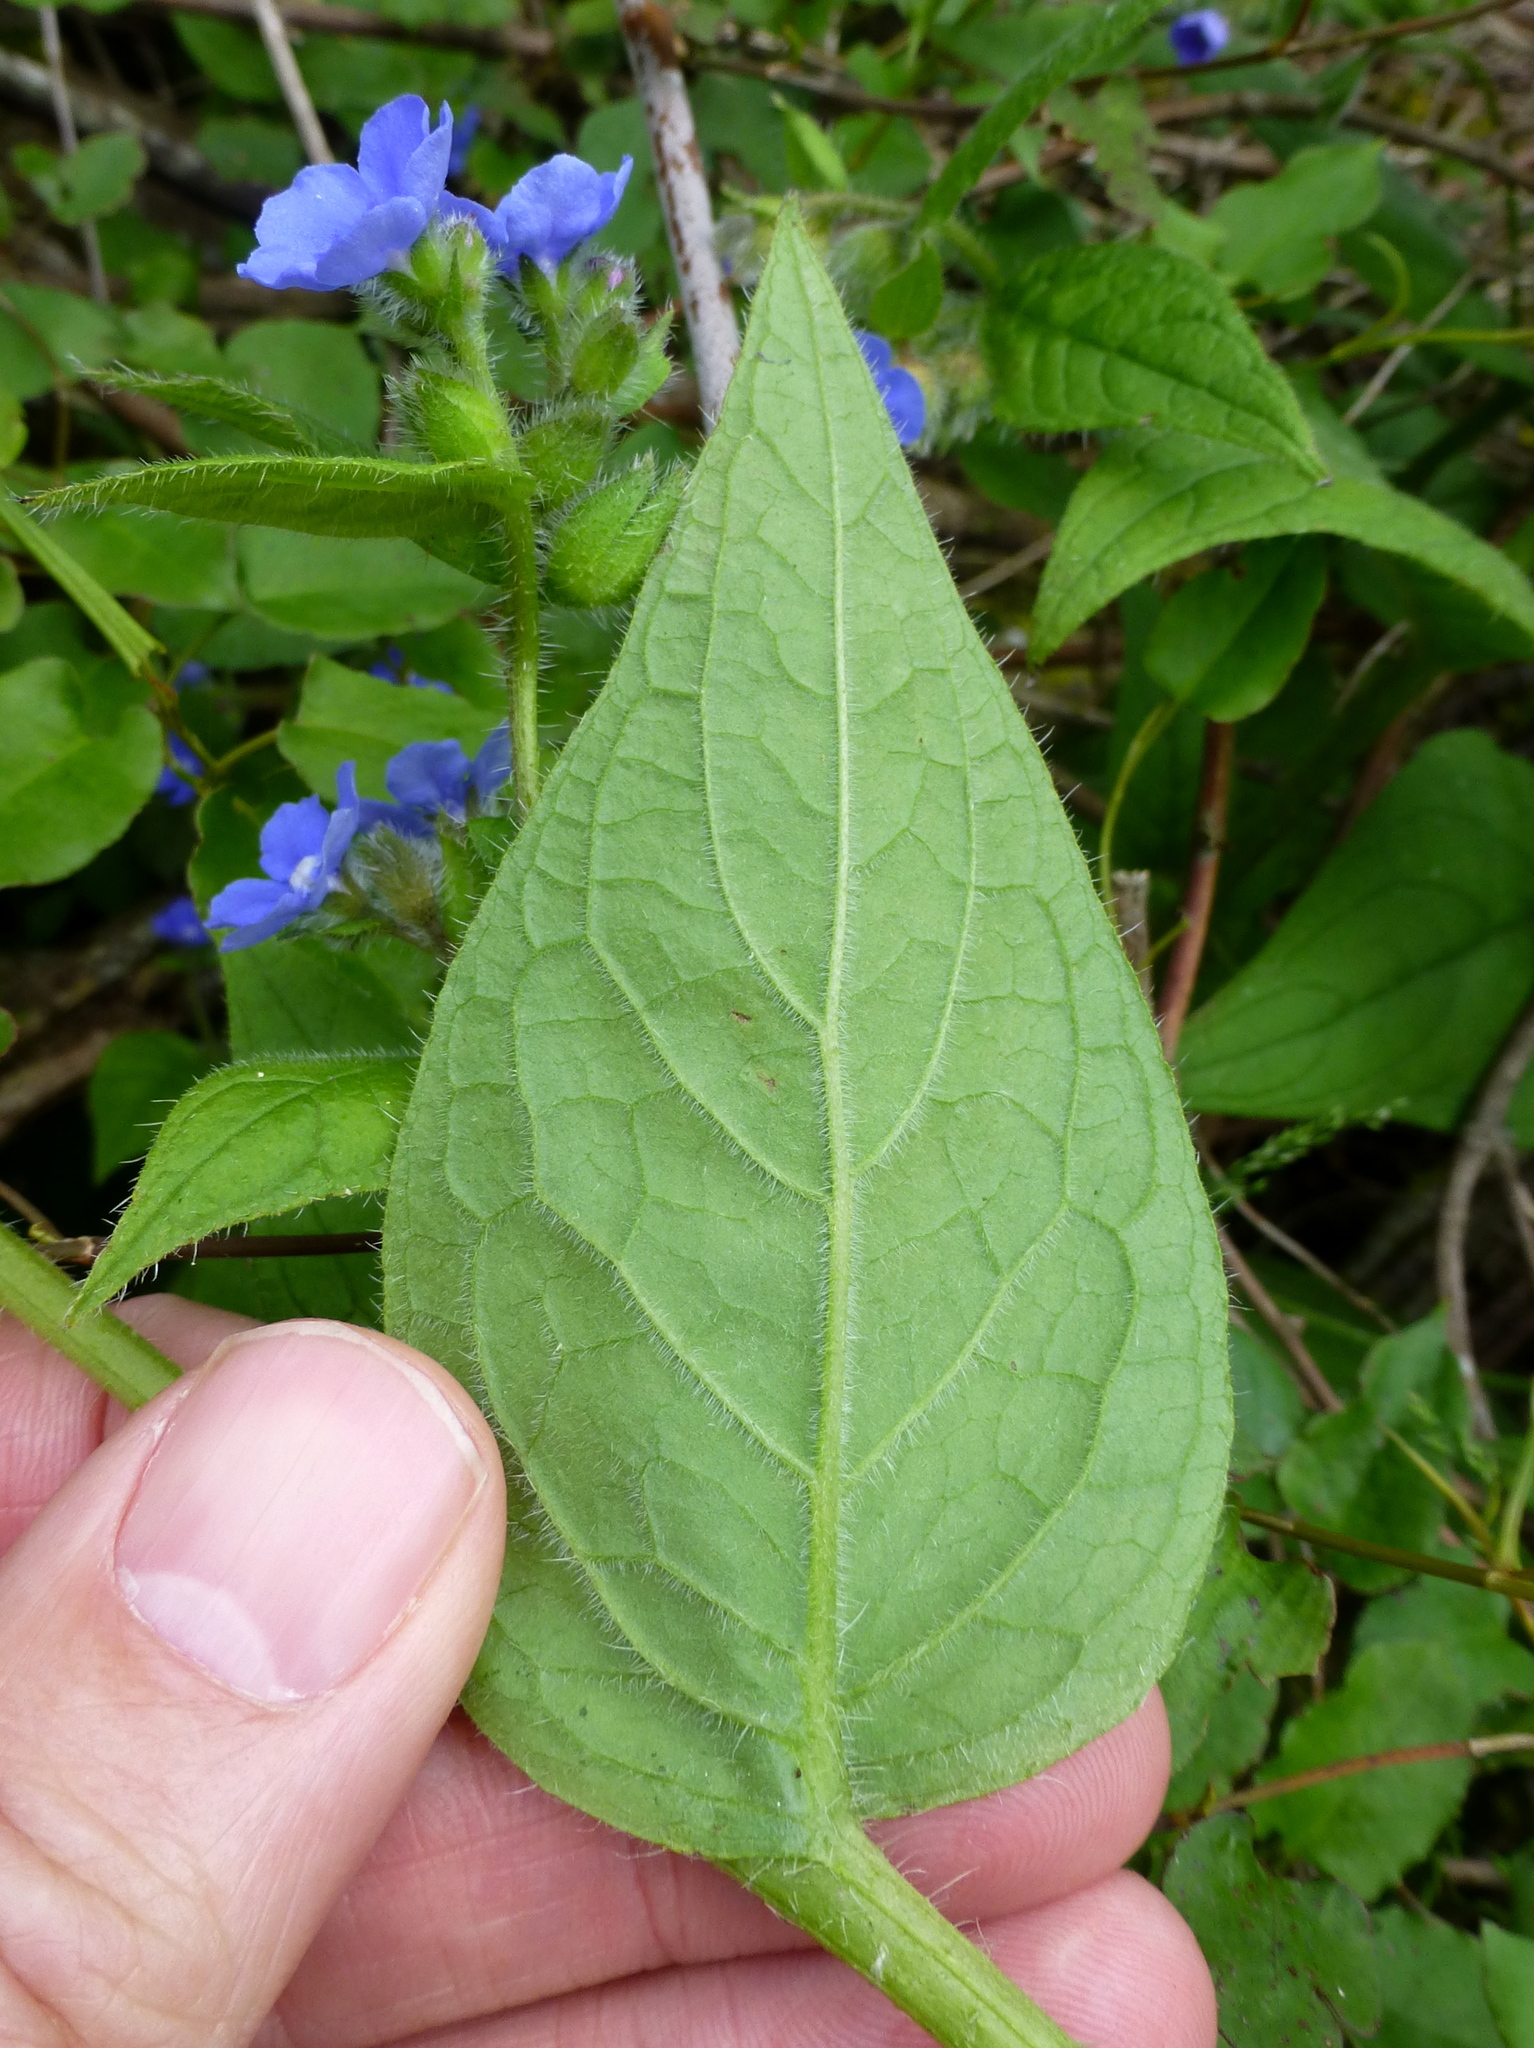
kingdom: Plantae
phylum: Tracheophyta
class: Magnoliopsida
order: Boraginales
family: Boraginaceae
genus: Pentaglottis
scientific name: Pentaglottis sempervirens
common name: Green alkanet
